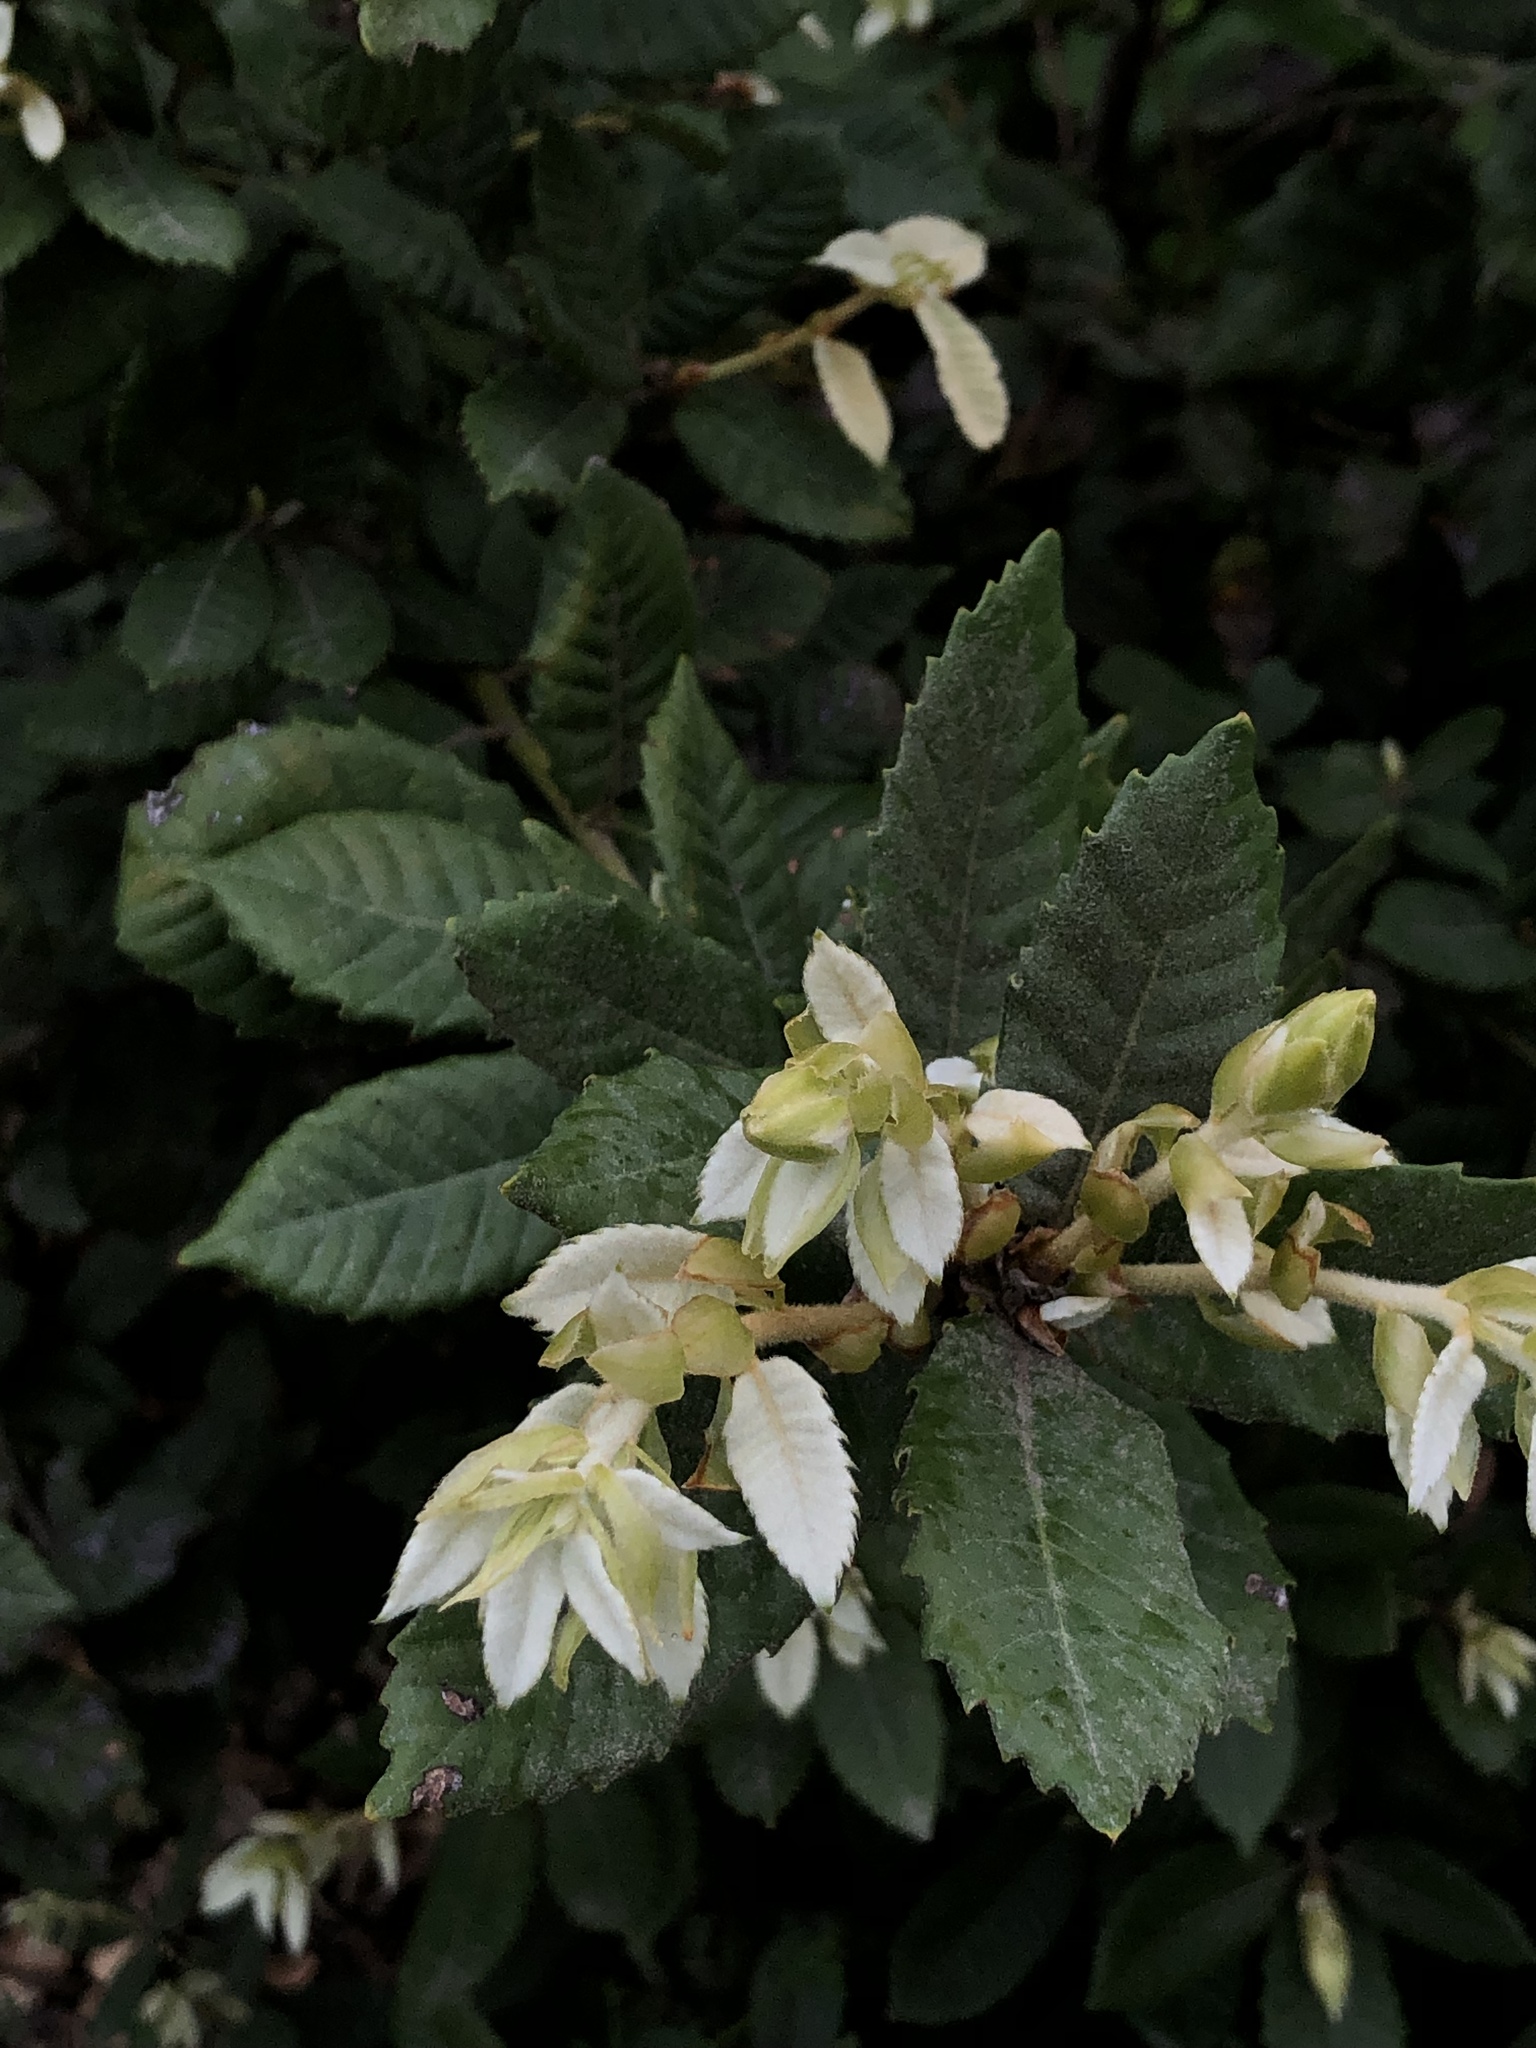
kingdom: Plantae
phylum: Tracheophyta
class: Magnoliopsida
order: Fagales
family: Fagaceae
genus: Notholithocarpus
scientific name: Notholithocarpus densiflorus
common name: Tan bark oak
